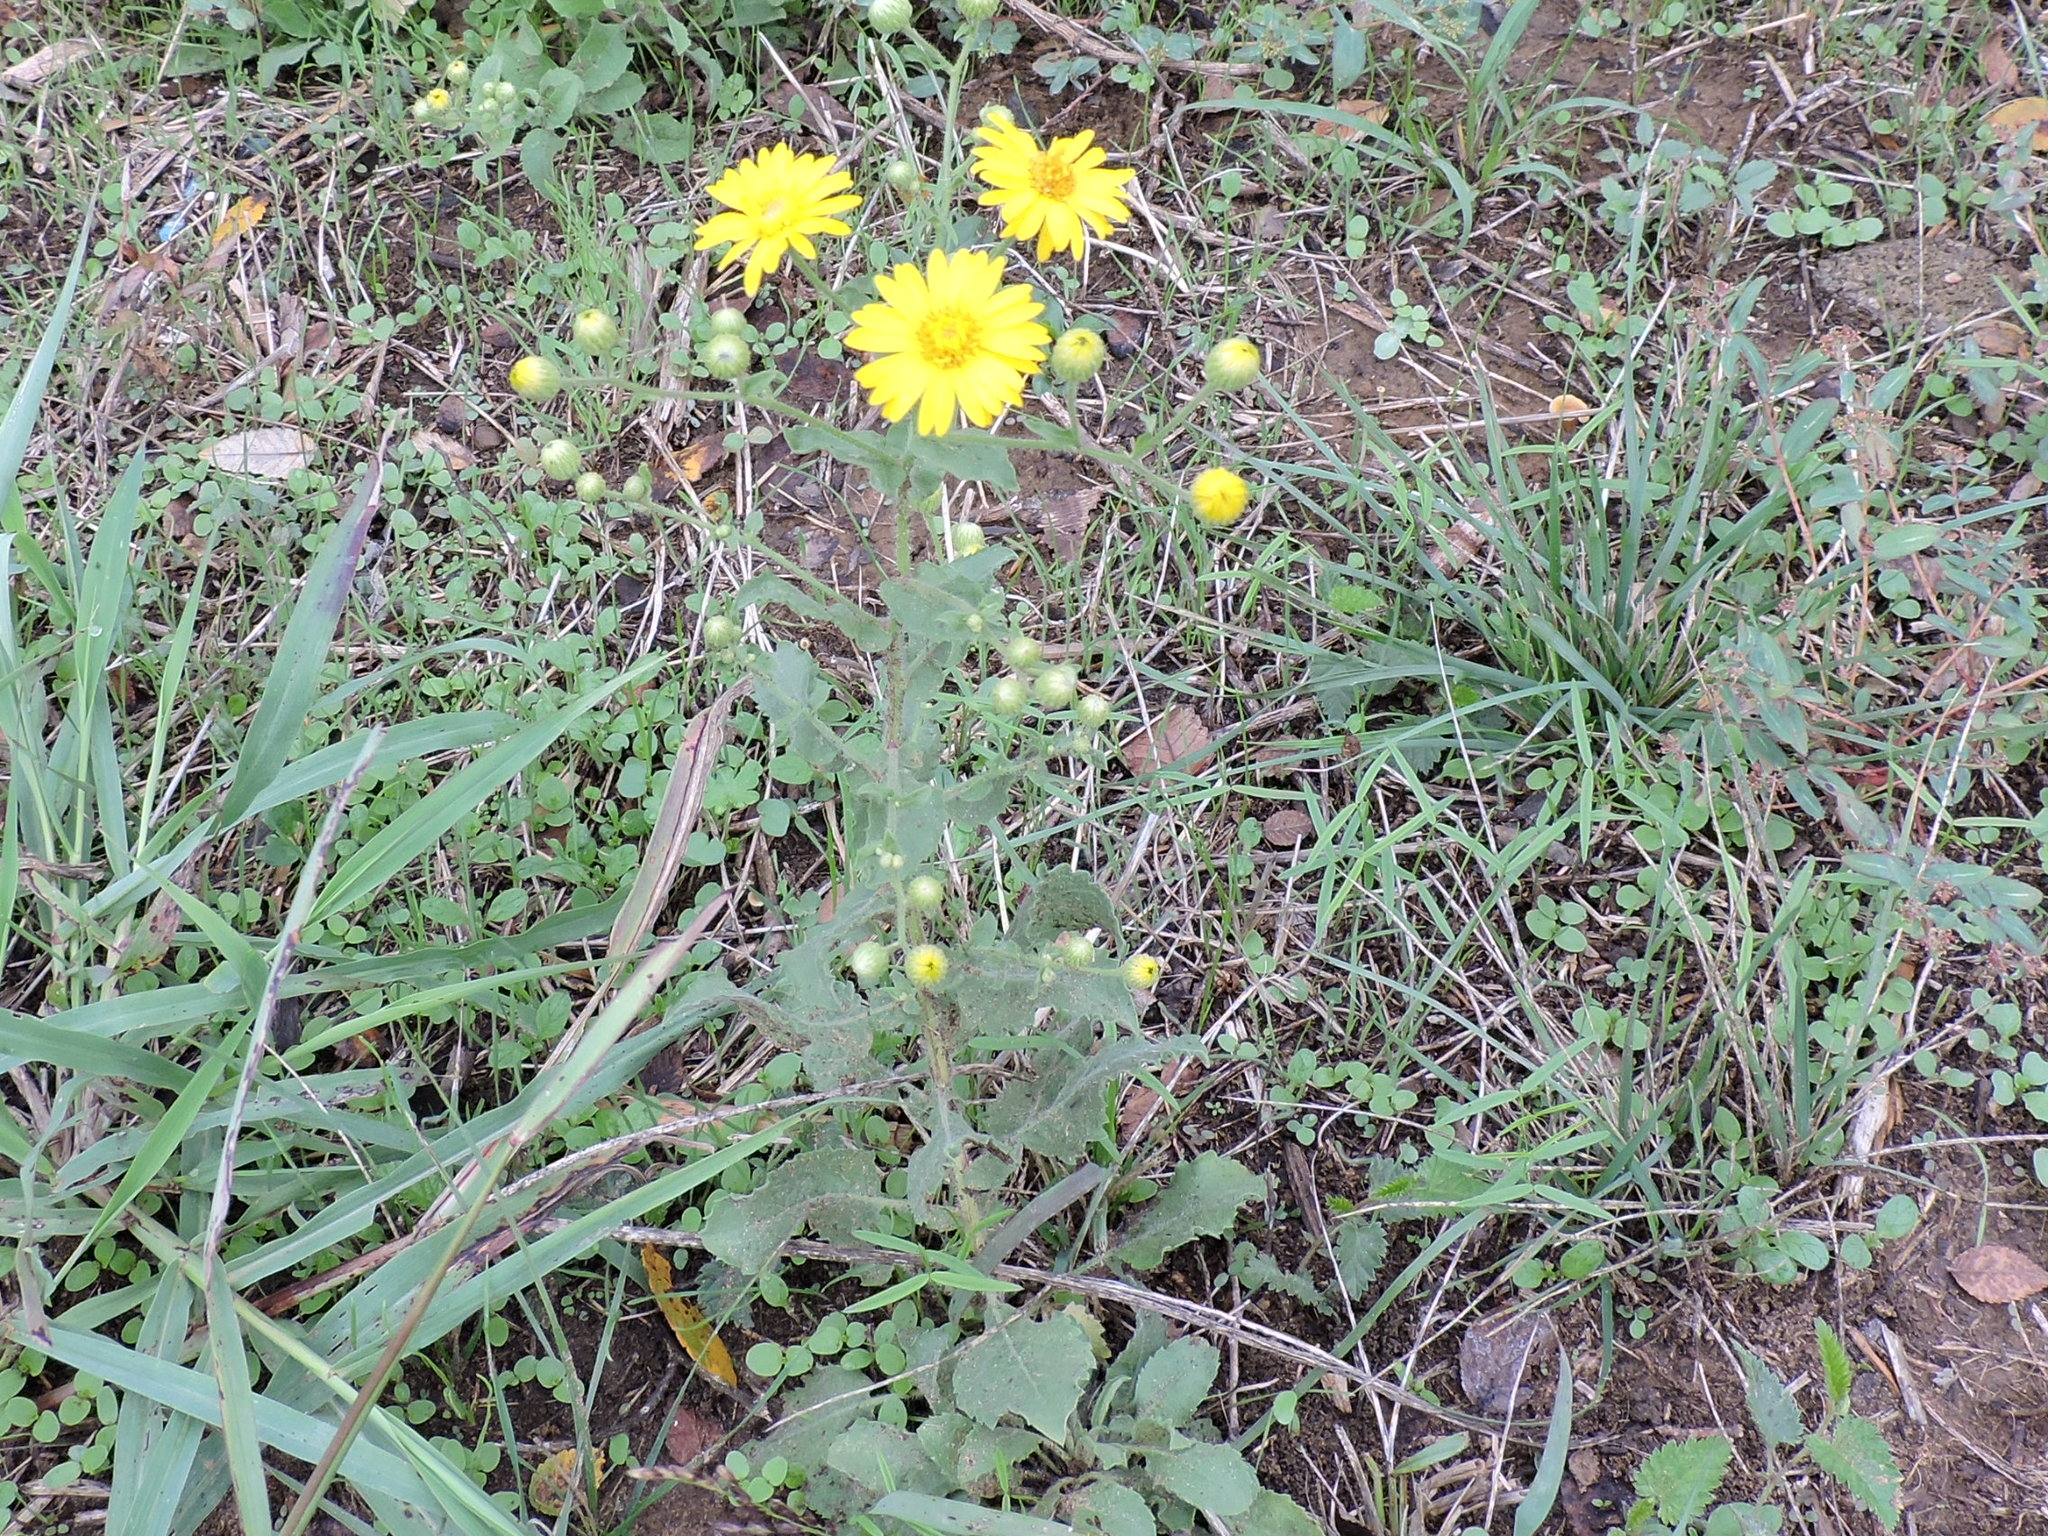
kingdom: Plantae
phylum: Tracheophyta
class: Magnoliopsida
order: Asterales
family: Asteraceae
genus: Heterotheca
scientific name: Heterotheca subaxillaris
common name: Camphorweed
